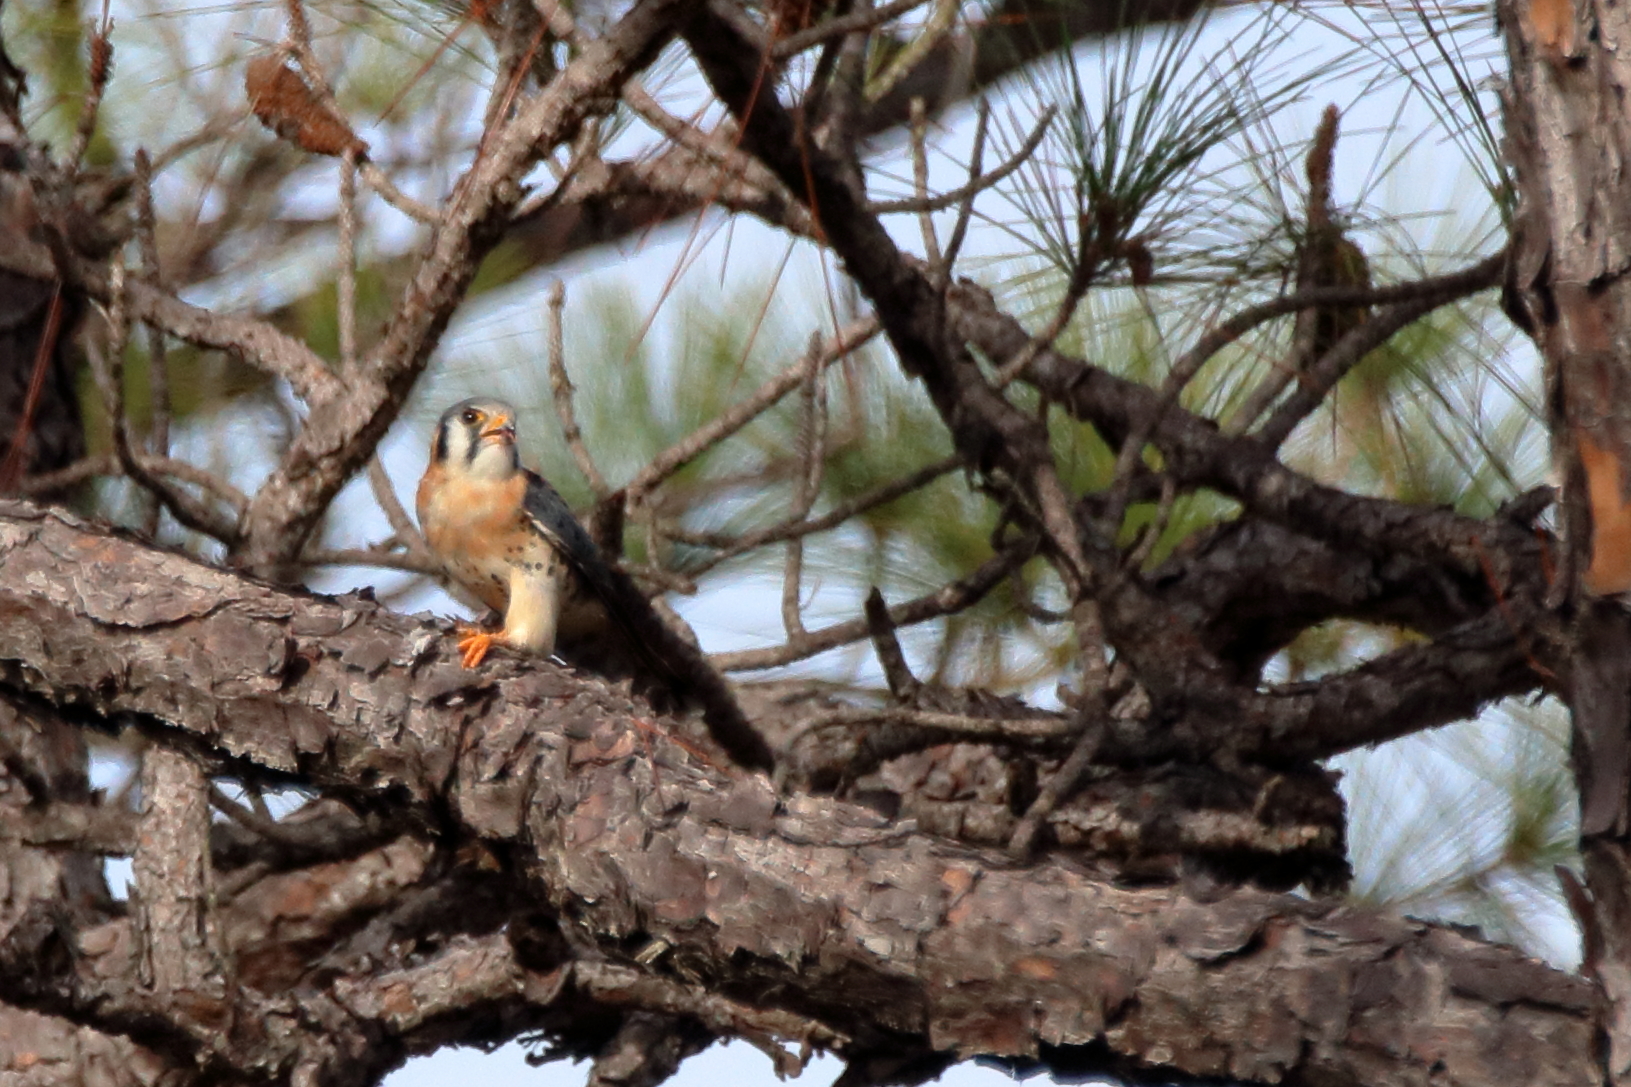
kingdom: Animalia
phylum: Chordata
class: Aves
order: Falconiformes
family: Falconidae
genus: Falco
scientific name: Falco sparverius
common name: American kestrel
